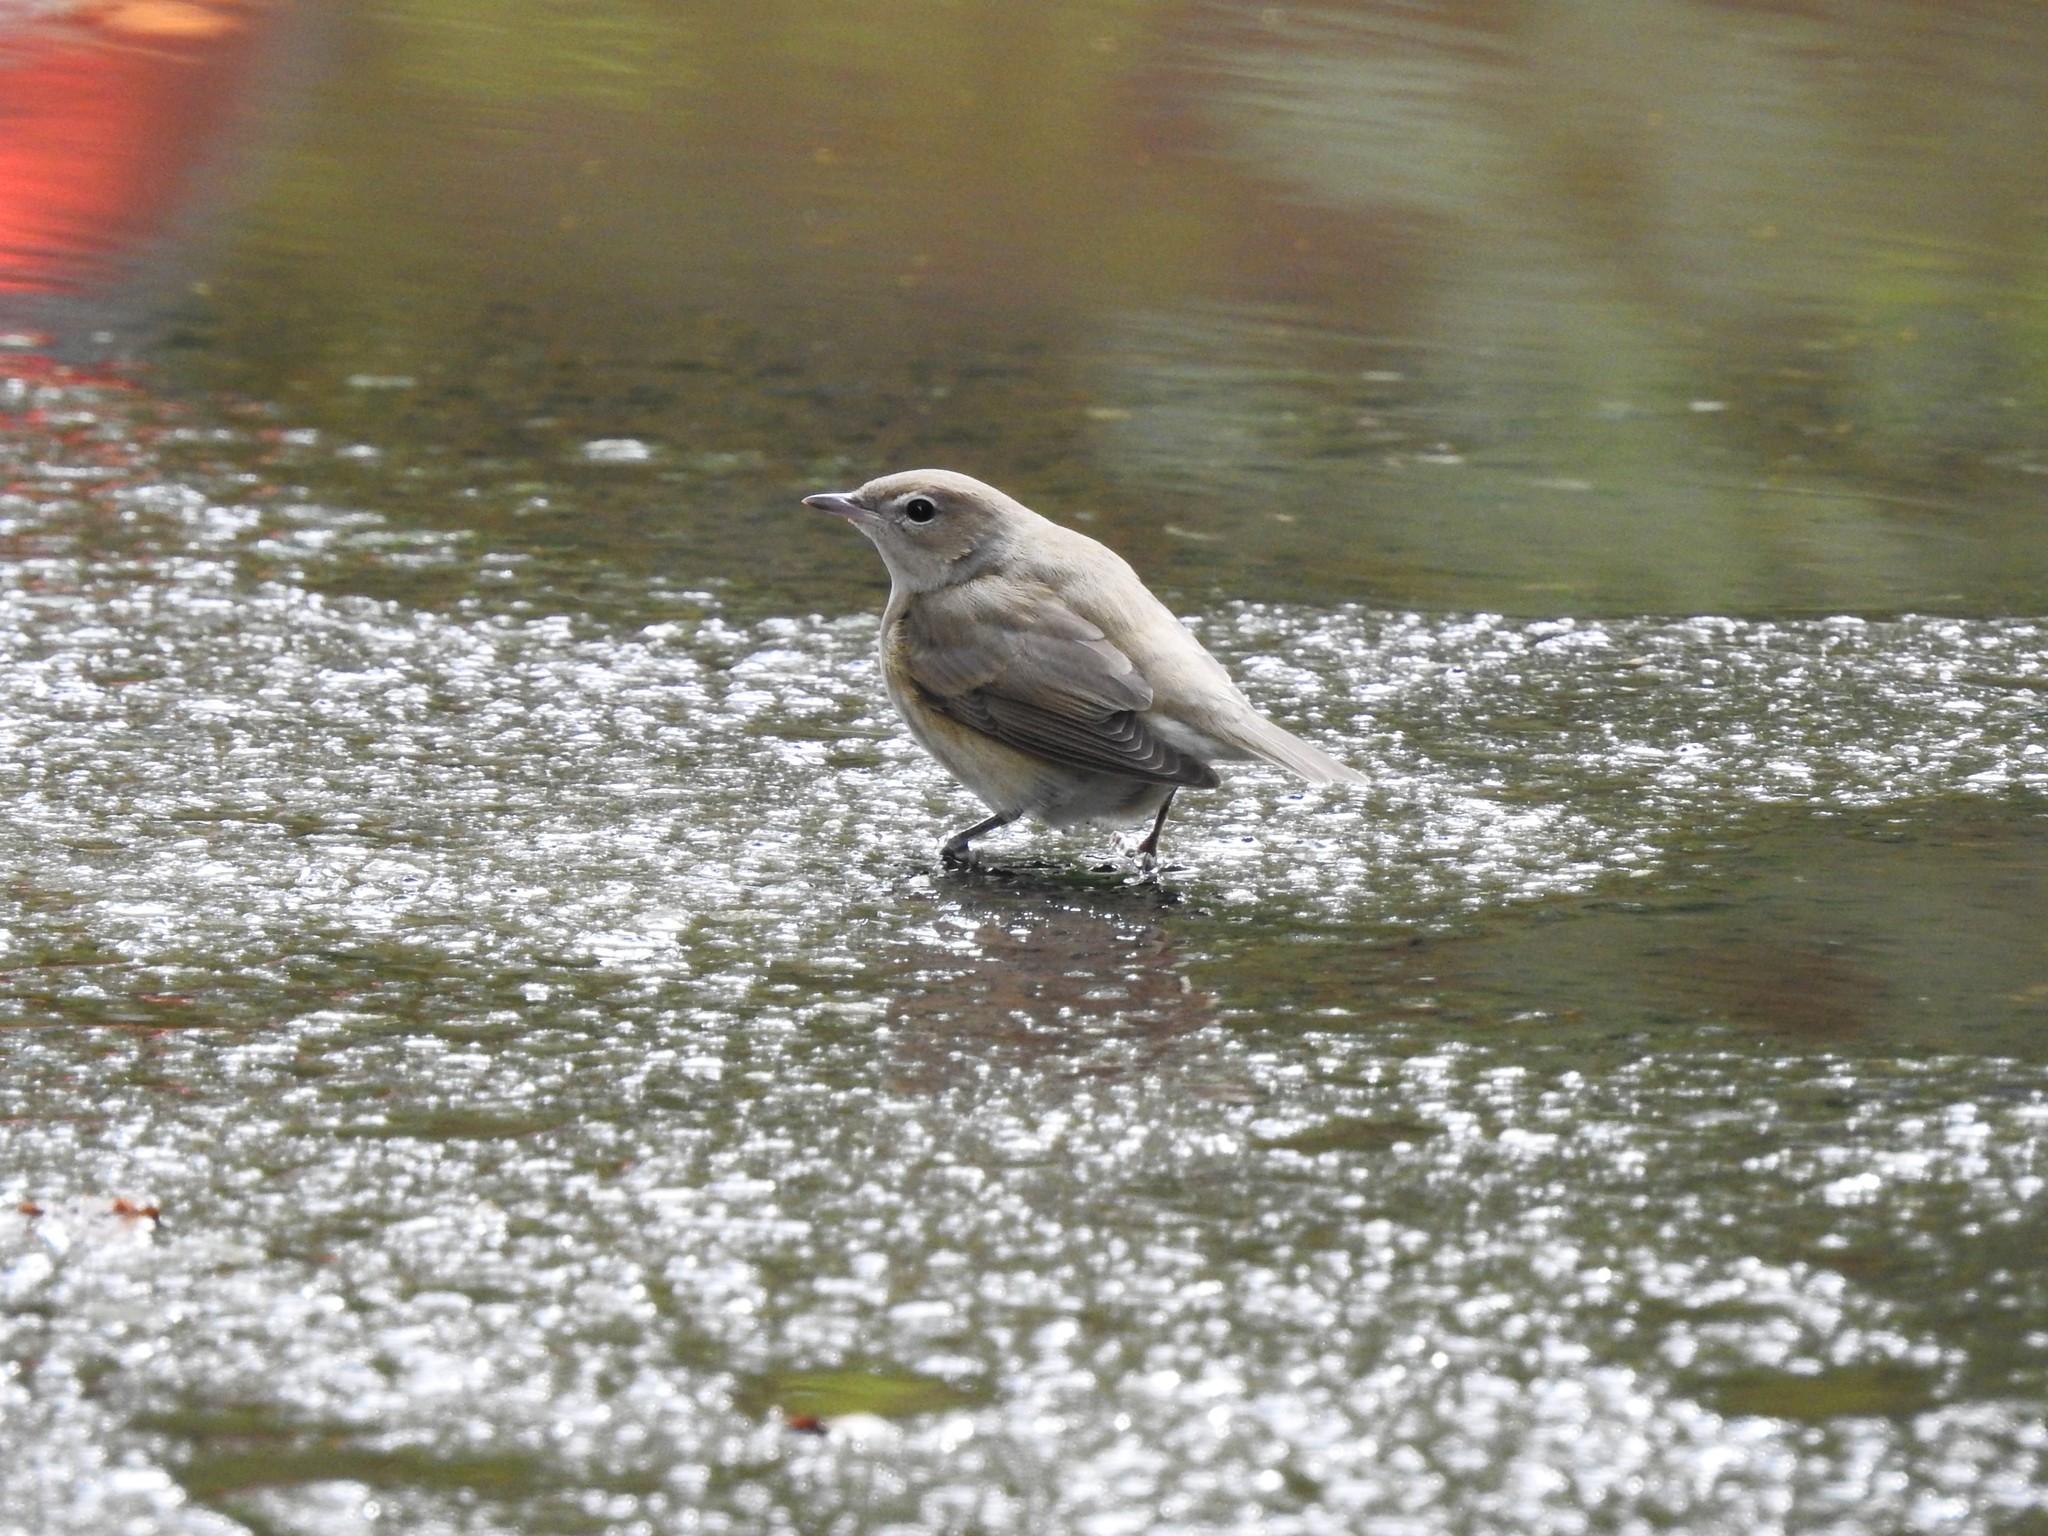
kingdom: Animalia
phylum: Chordata
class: Aves
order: Passeriformes
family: Sylviidae
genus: Sylvia
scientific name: Sylvia borin
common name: Garden warbler
